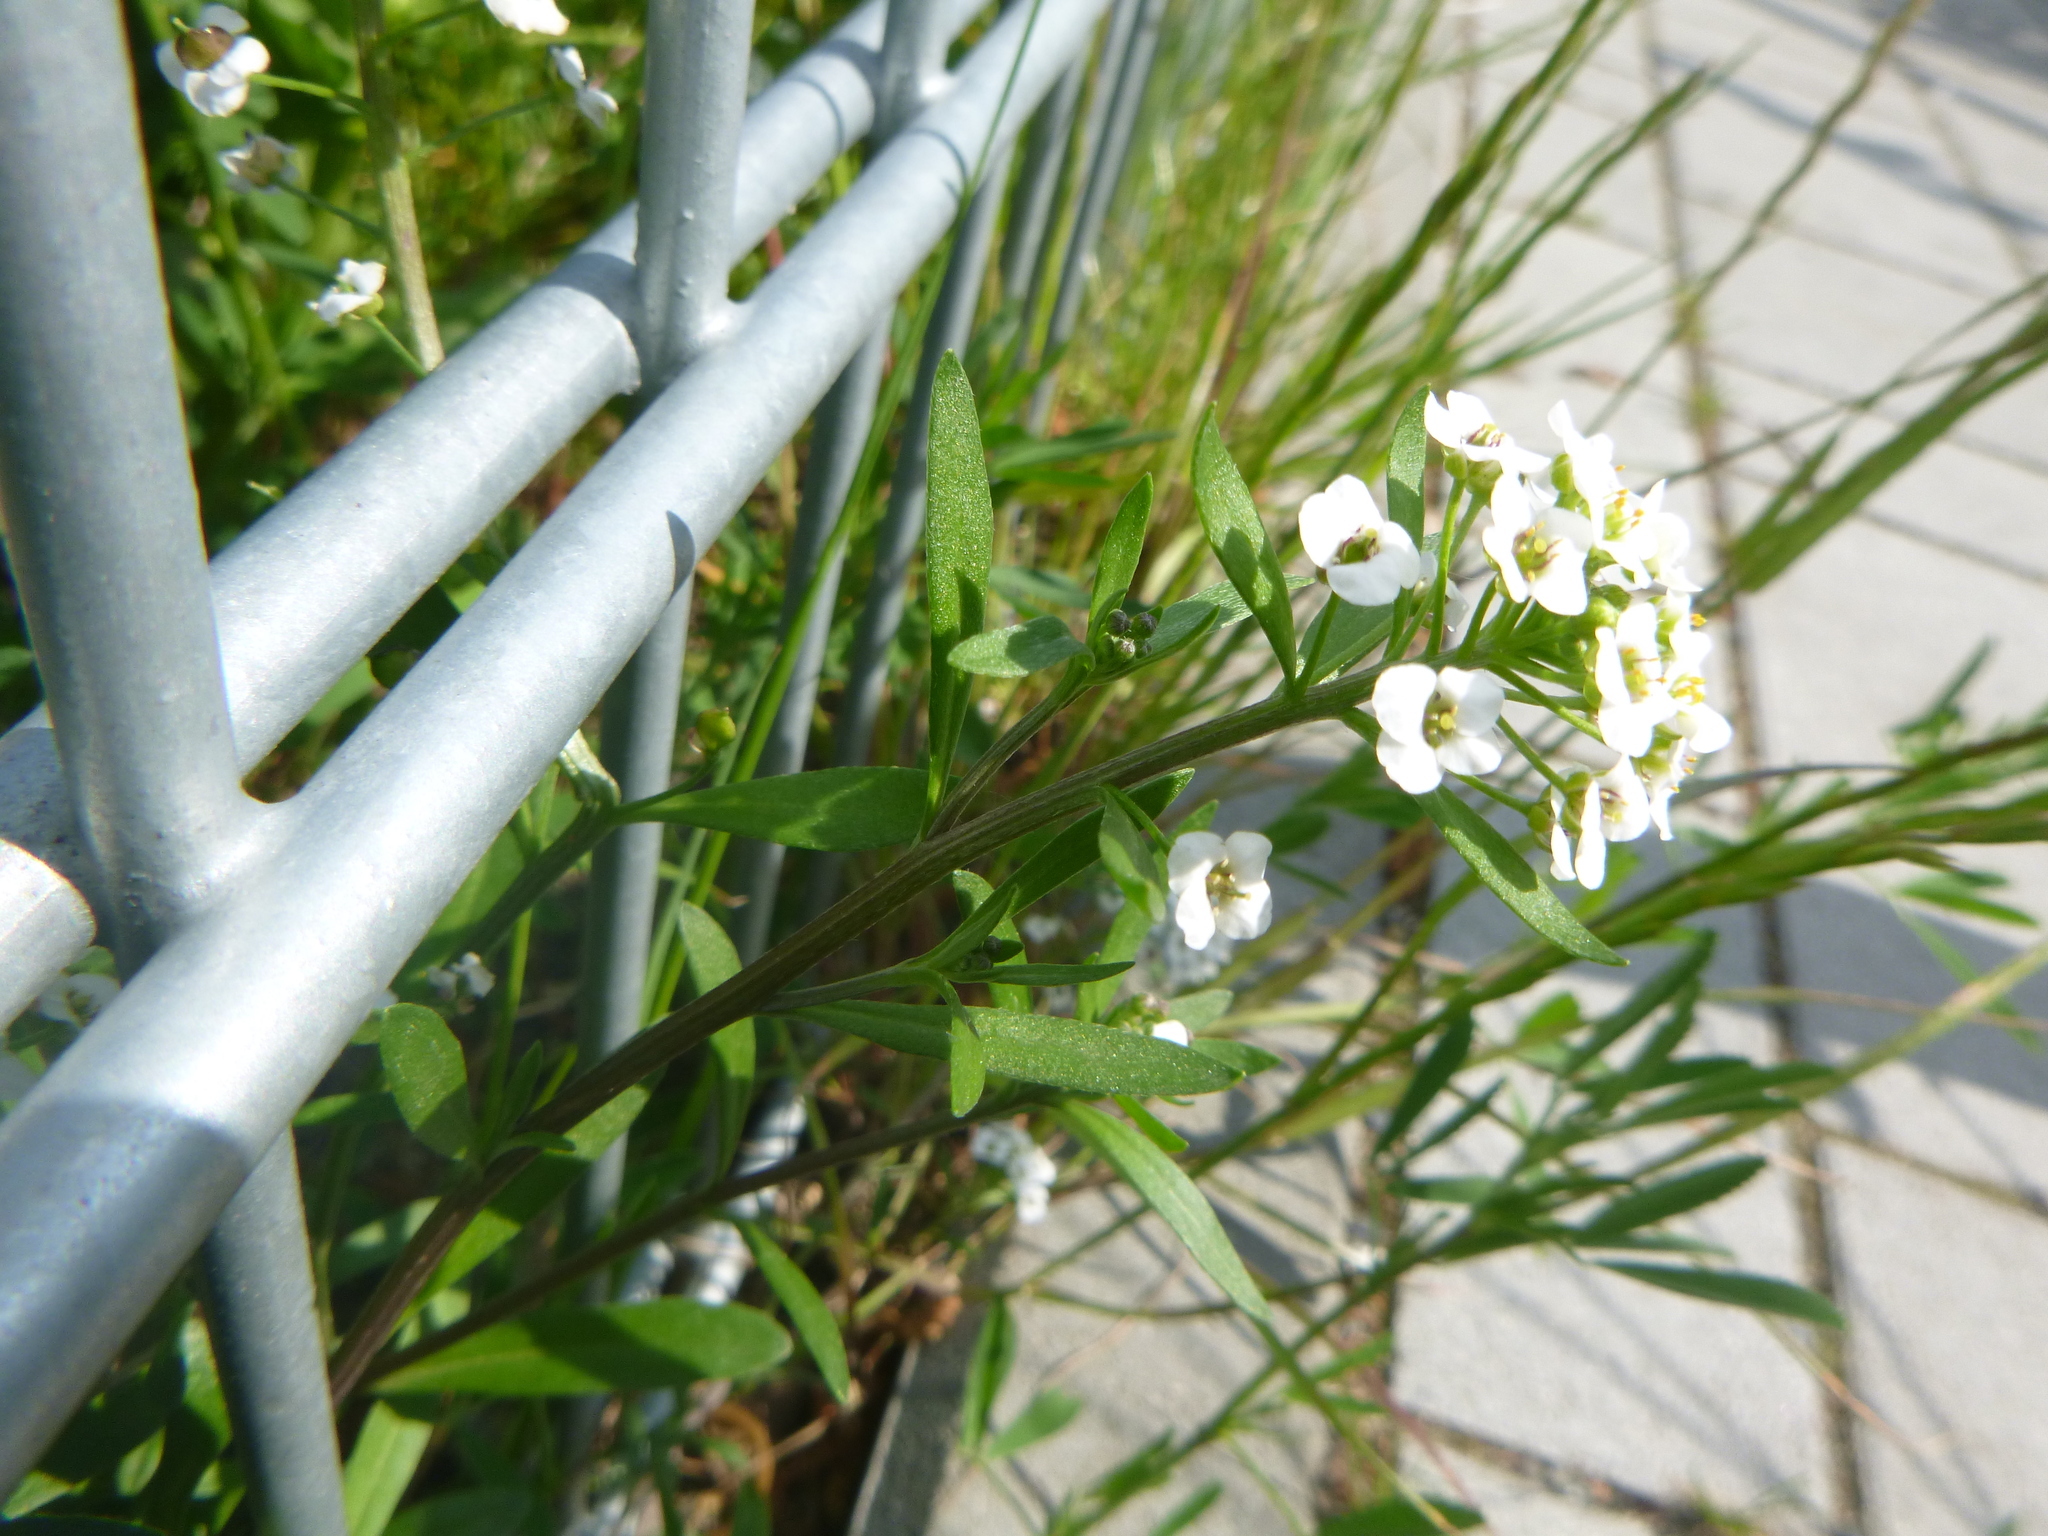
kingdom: Plantae
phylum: Tracheophyta
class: Magnoliopsida
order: Brassicales
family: Brassicaceae
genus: Lobularia
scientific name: Lobularia maritima
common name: Sweet alison
